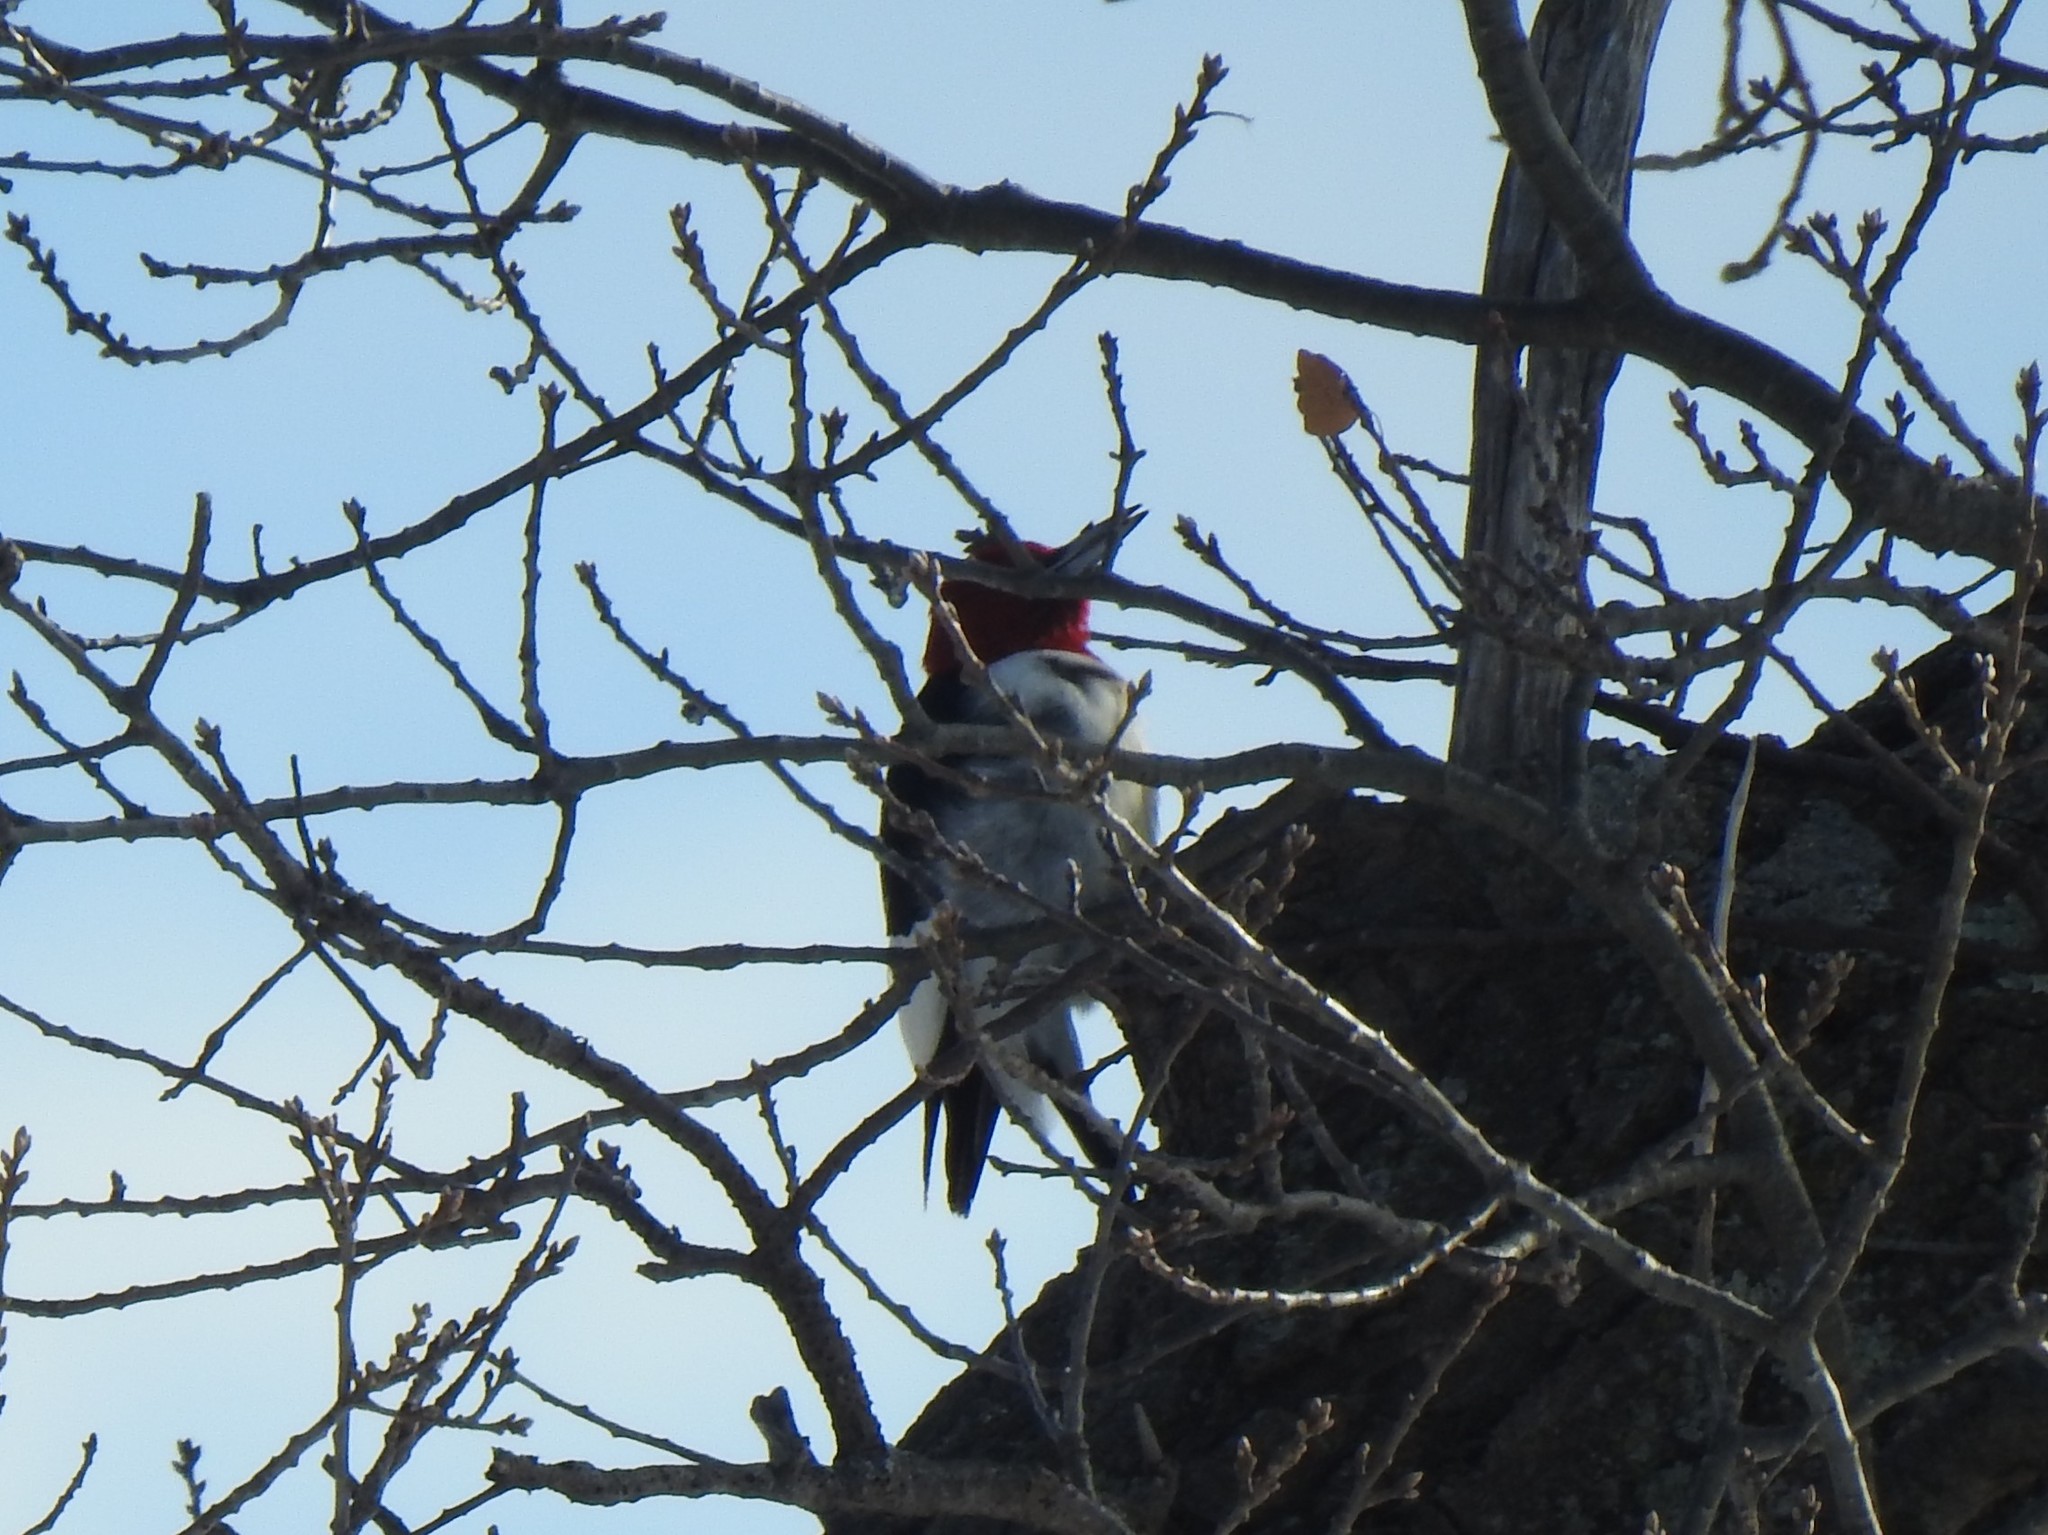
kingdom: Animalia
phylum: Chordata
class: Aves
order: Piciformes
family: Picidae
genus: Melanerpes
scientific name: Melanerpes erythrocephalus
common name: Red-headed woodpecker
